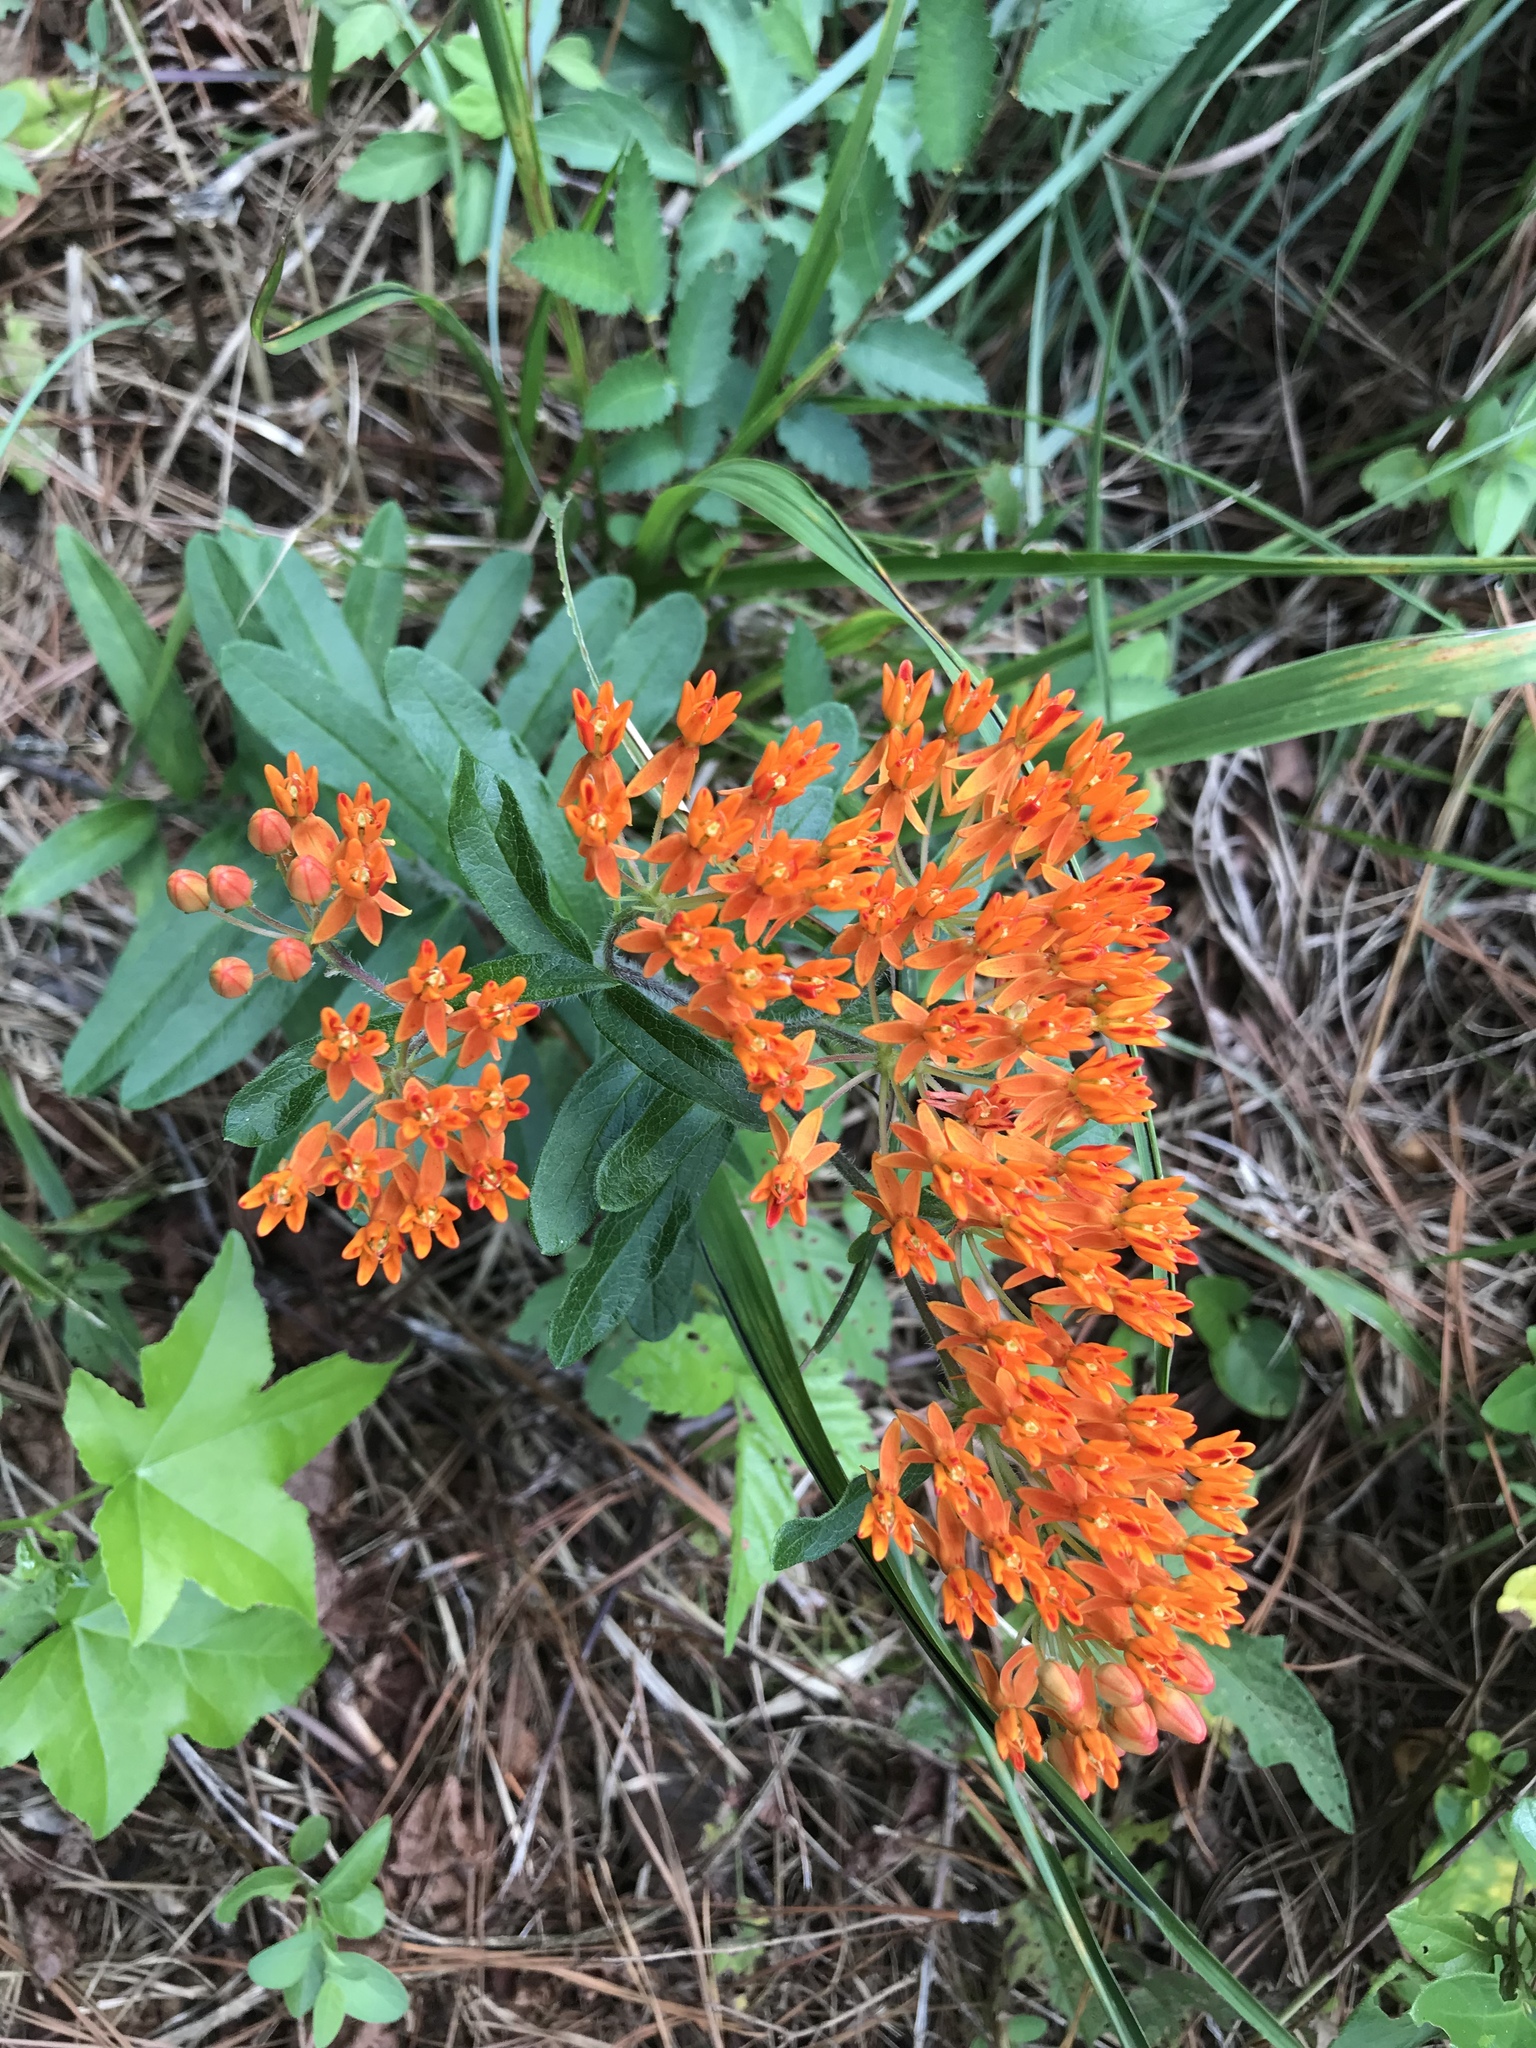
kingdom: Plantae
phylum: Tracheophyta
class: Magnoliopsida
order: Gentianales
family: Apocynaceae
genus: Asclepias
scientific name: Asclepias tuberosa
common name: Butterfly milkweed
